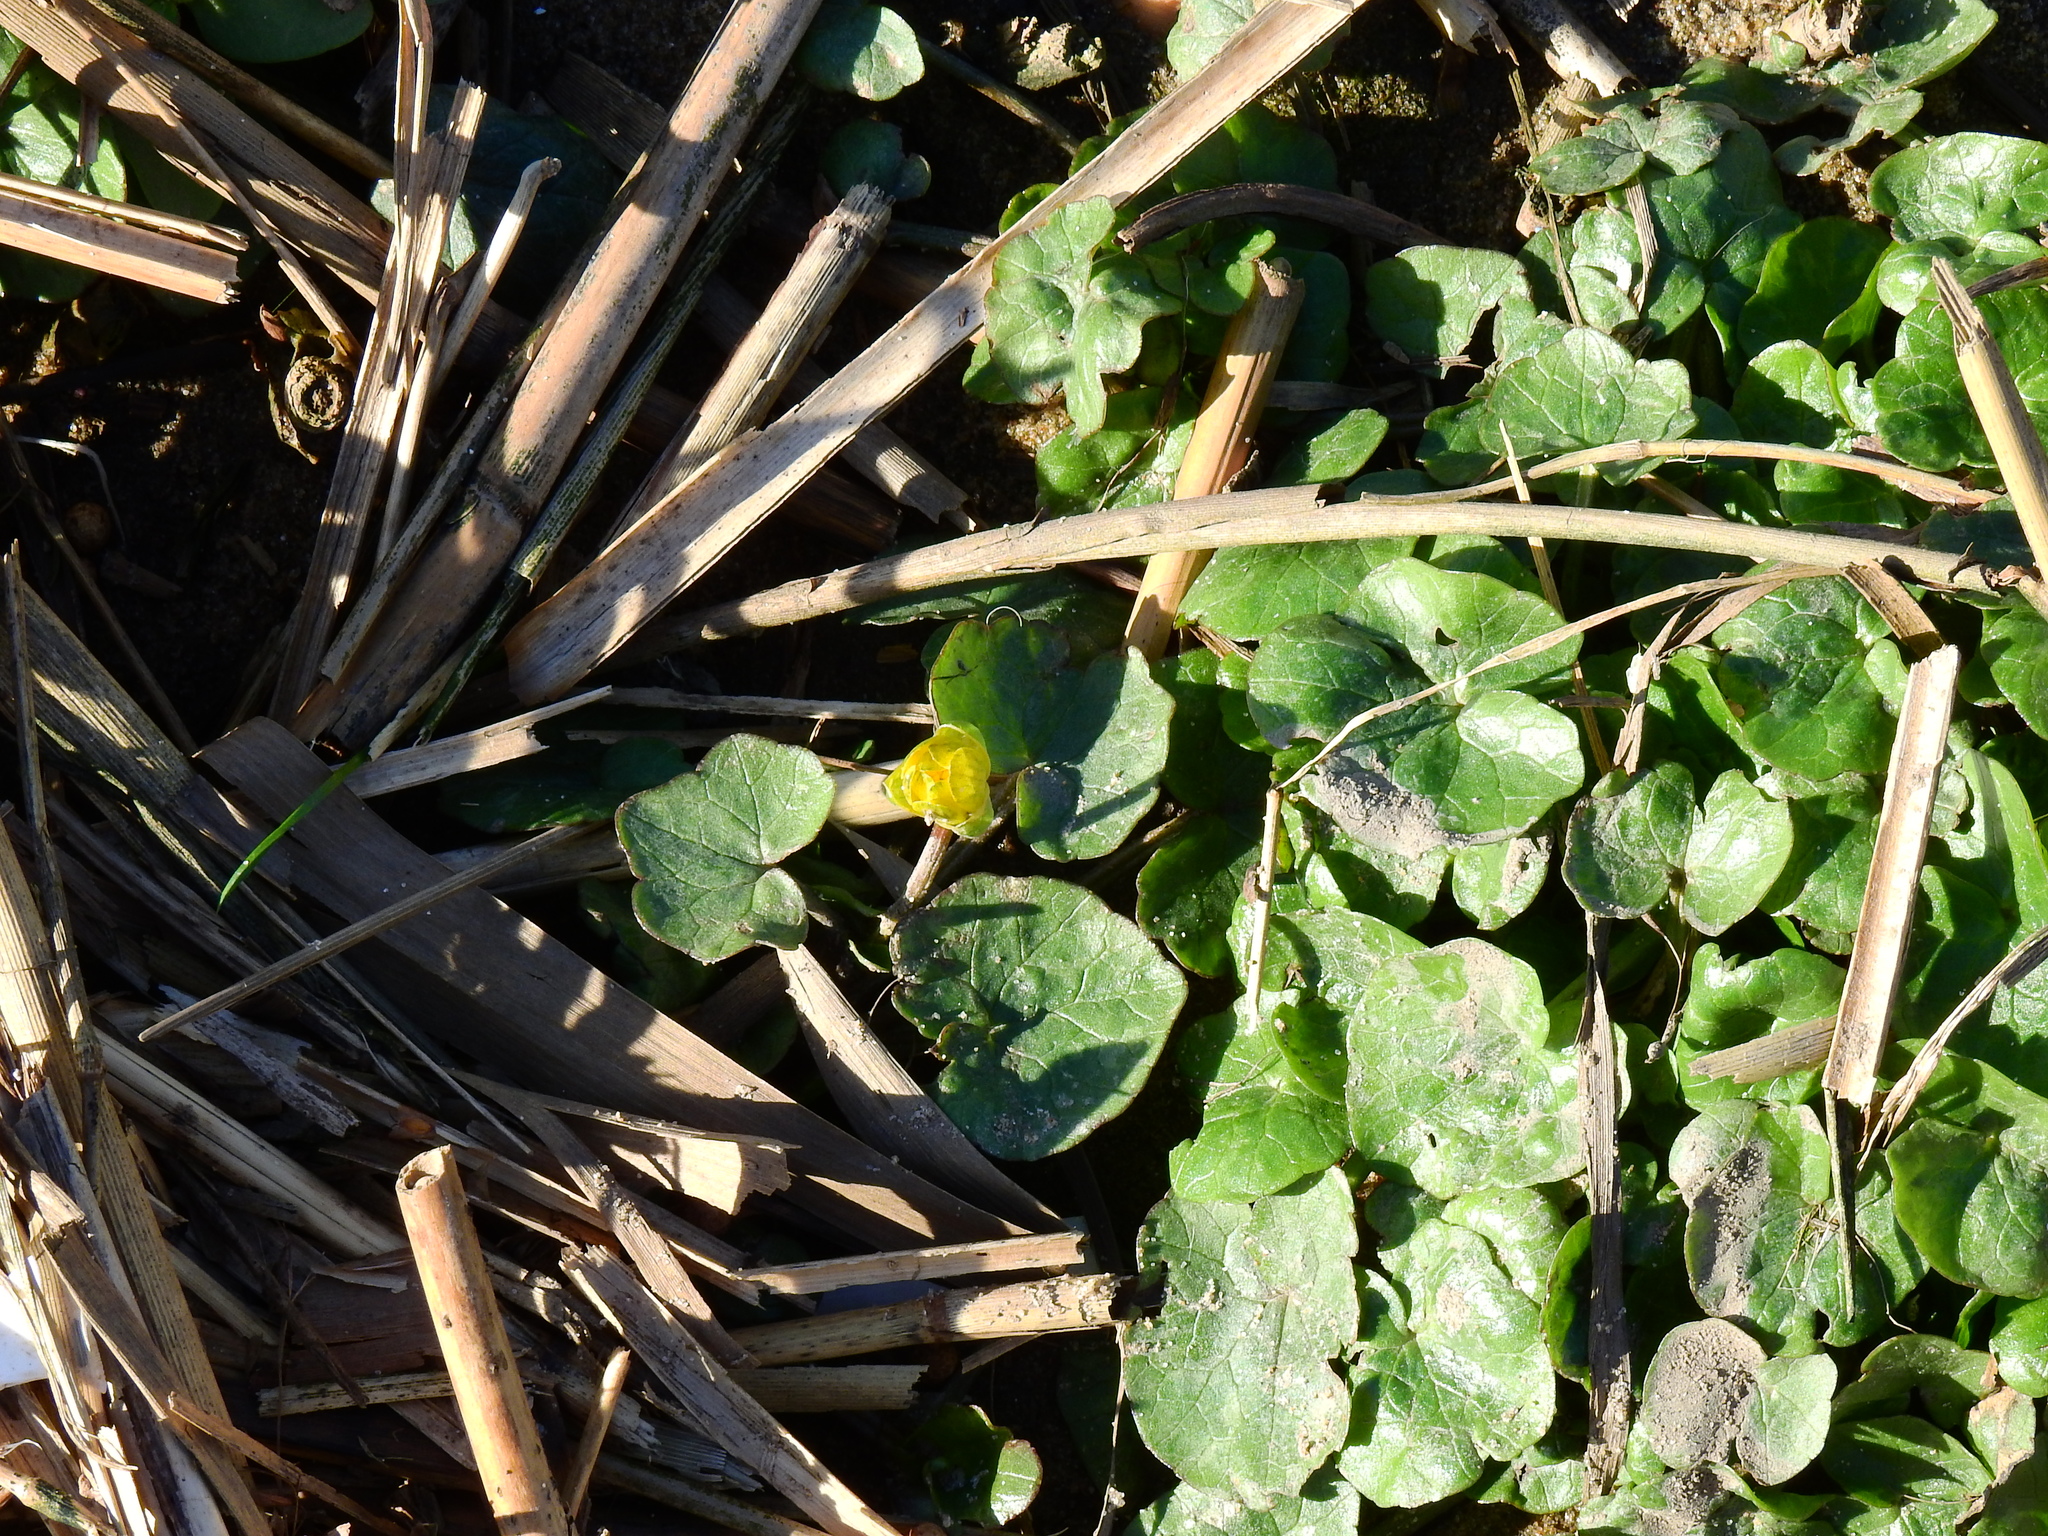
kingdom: Plantae
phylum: Tracheophyta
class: Magnoliopsida
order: Ranunculales
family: Ranunculaceae
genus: Ficaria
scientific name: Ficaria verna
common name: Lesser celandine
